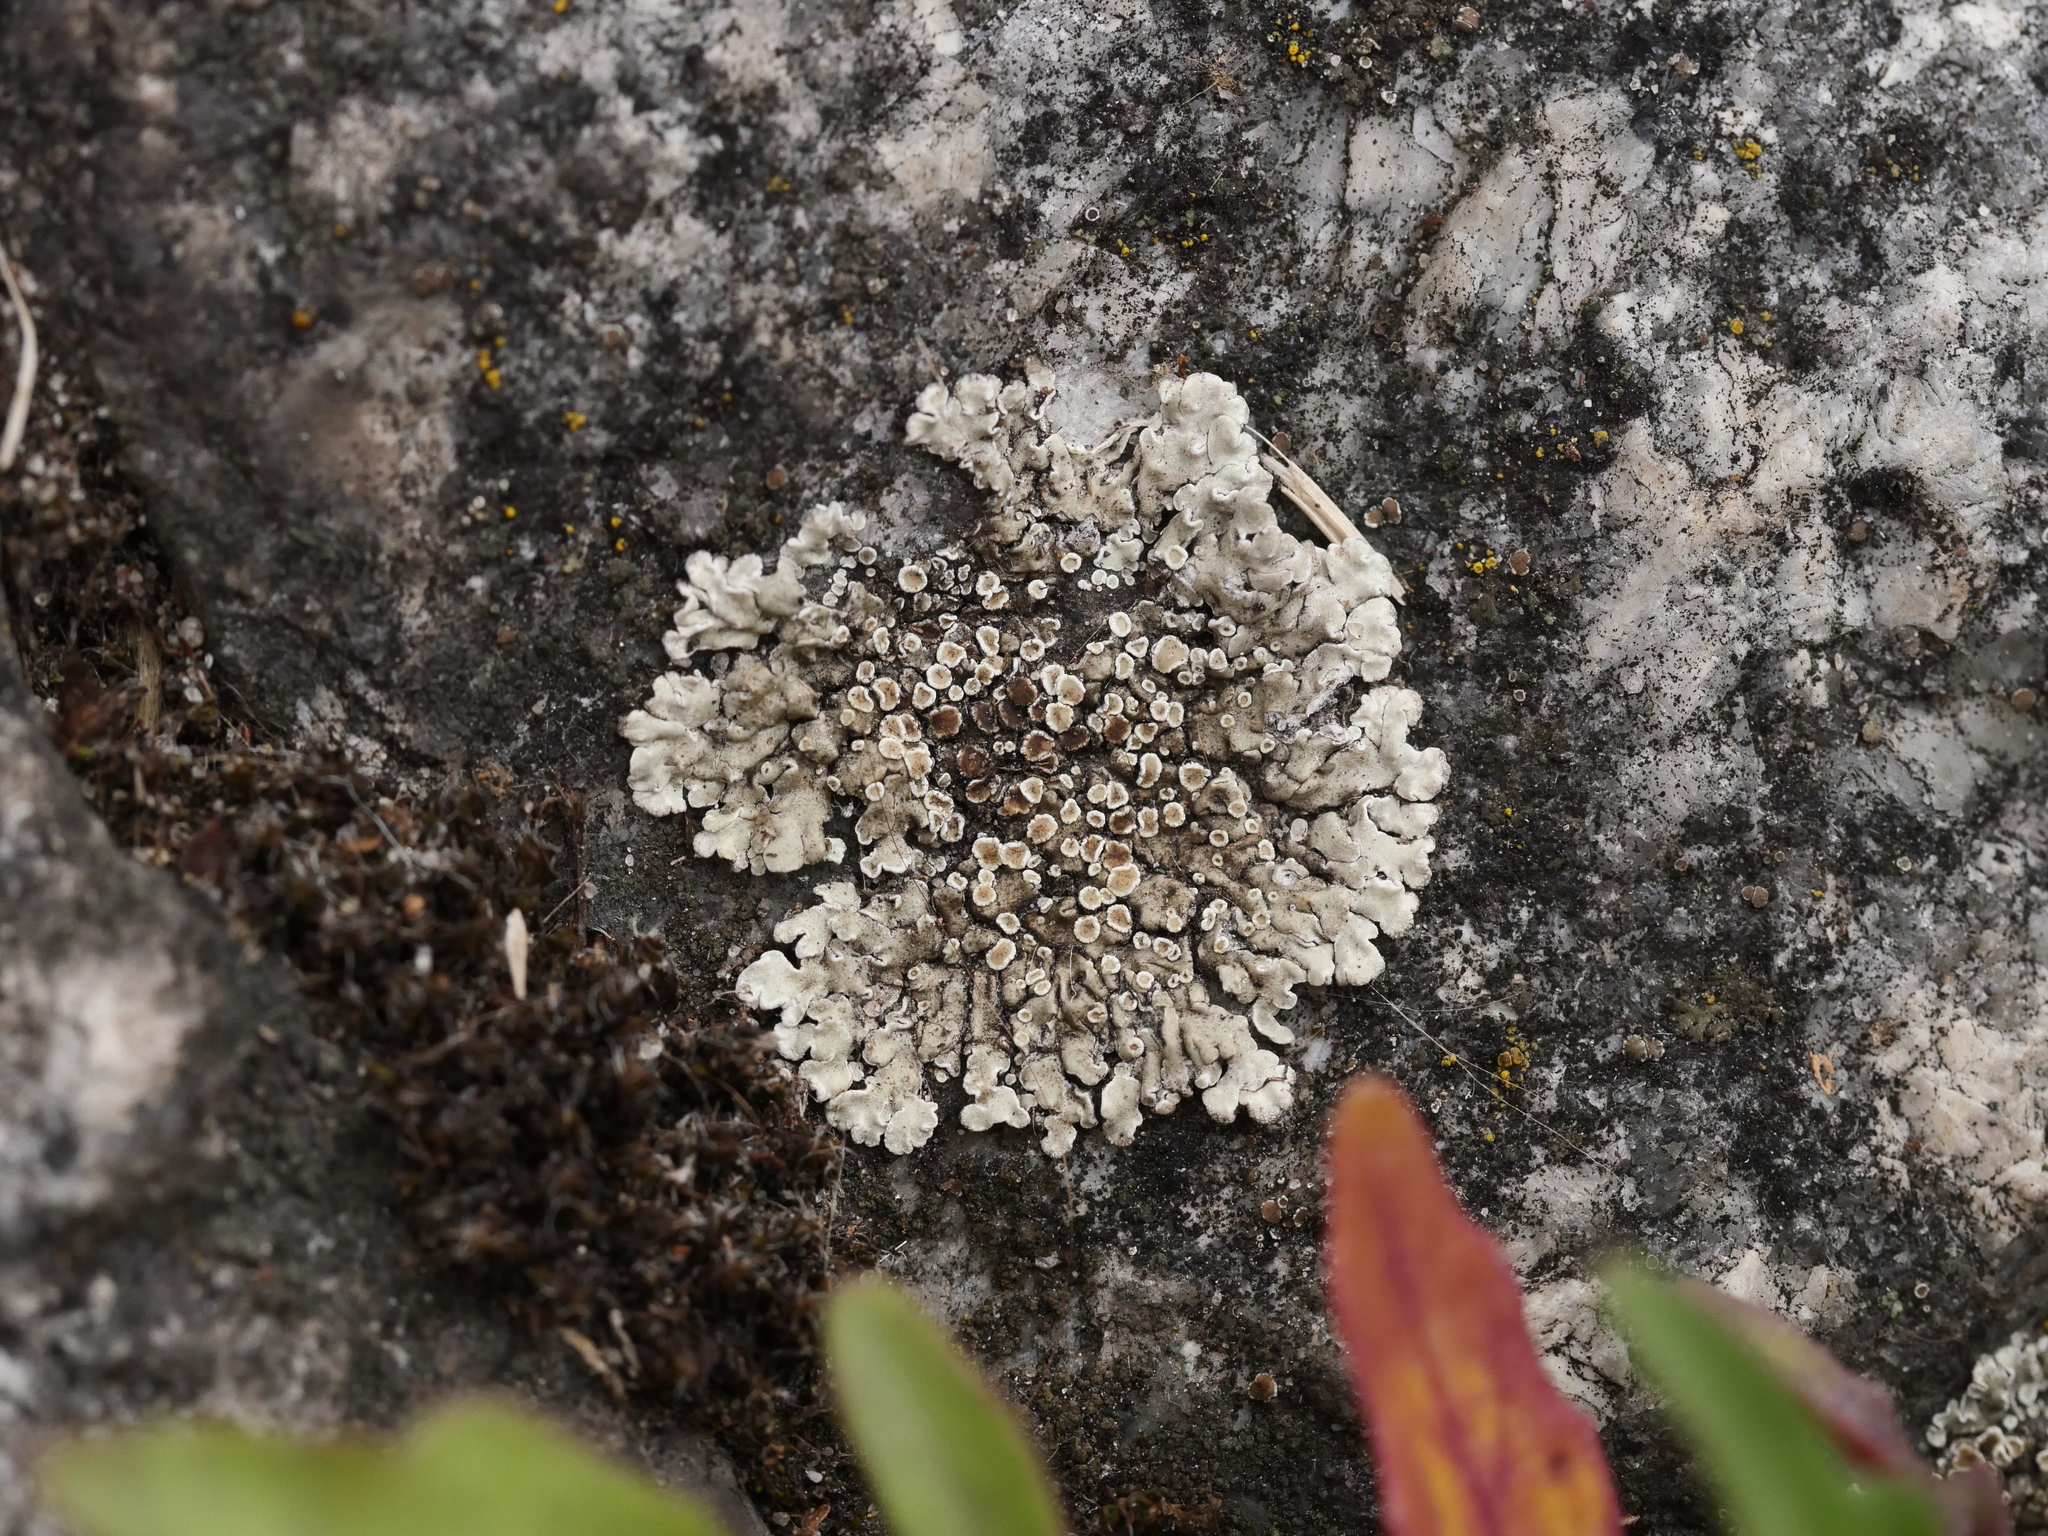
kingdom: Fungi
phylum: Ascomycota
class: Lecanoromycetes
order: Lecanorales
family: Lecanoraceae
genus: Protoparmeliopsis
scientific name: Protoparmeliopsis muralis
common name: Stonewall rim lichen
